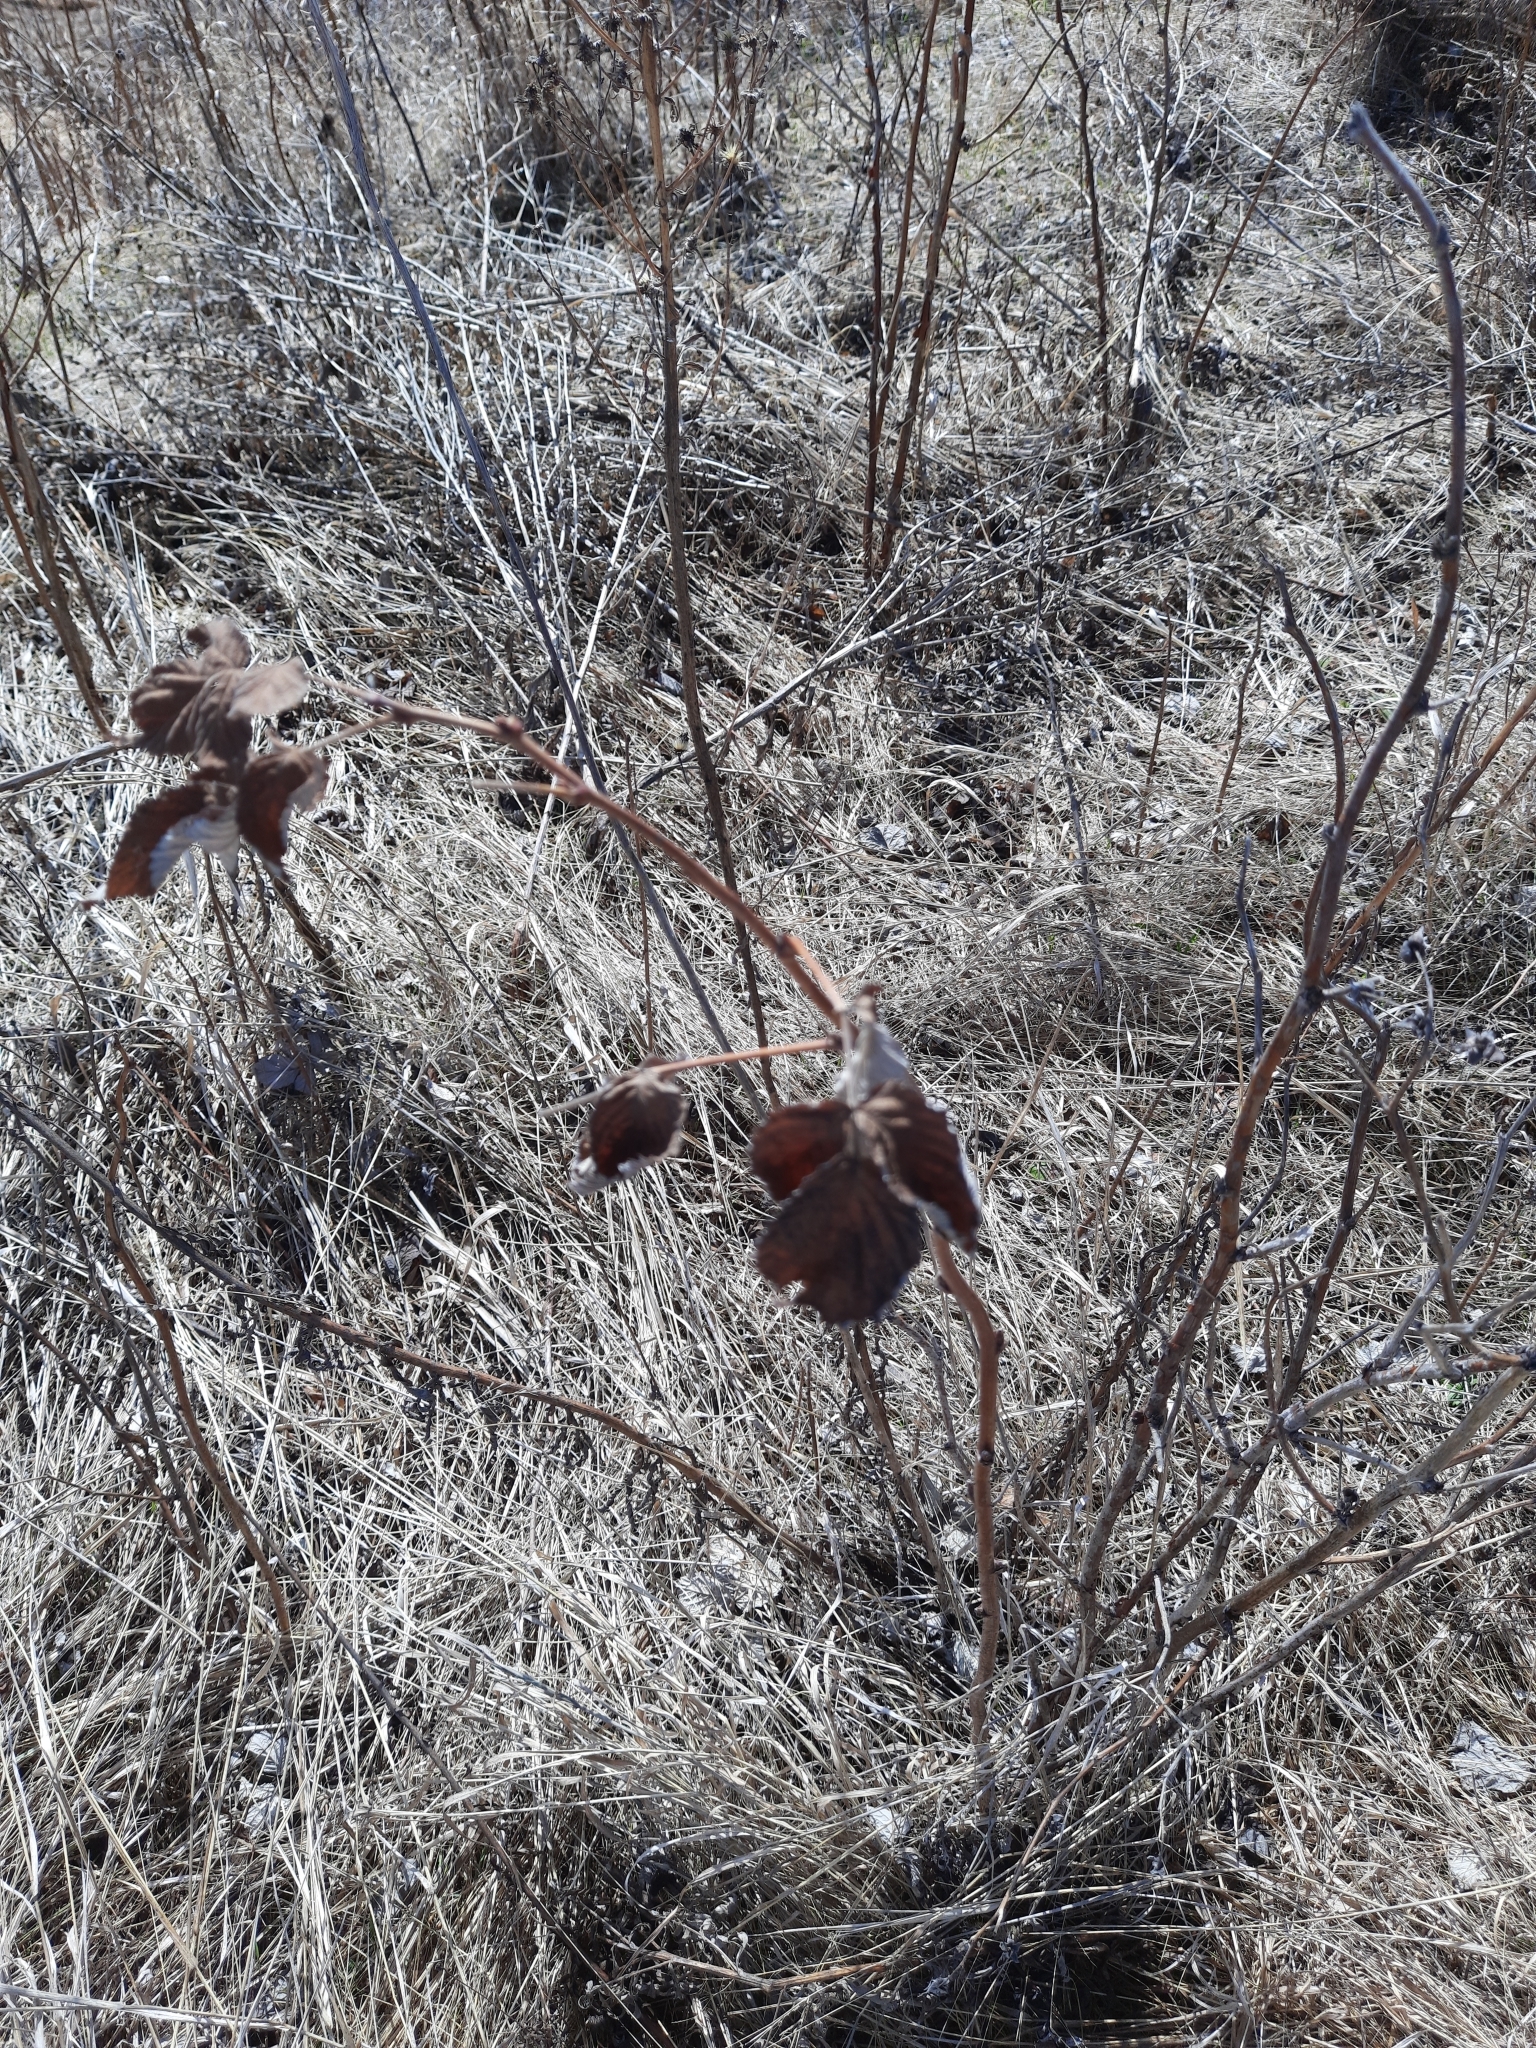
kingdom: Plantae
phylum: Tracheophyta
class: Magnoliopsida
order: Rosales
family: Rosaceae
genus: Rubus
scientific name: Rubus idaeus
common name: Raspberry
